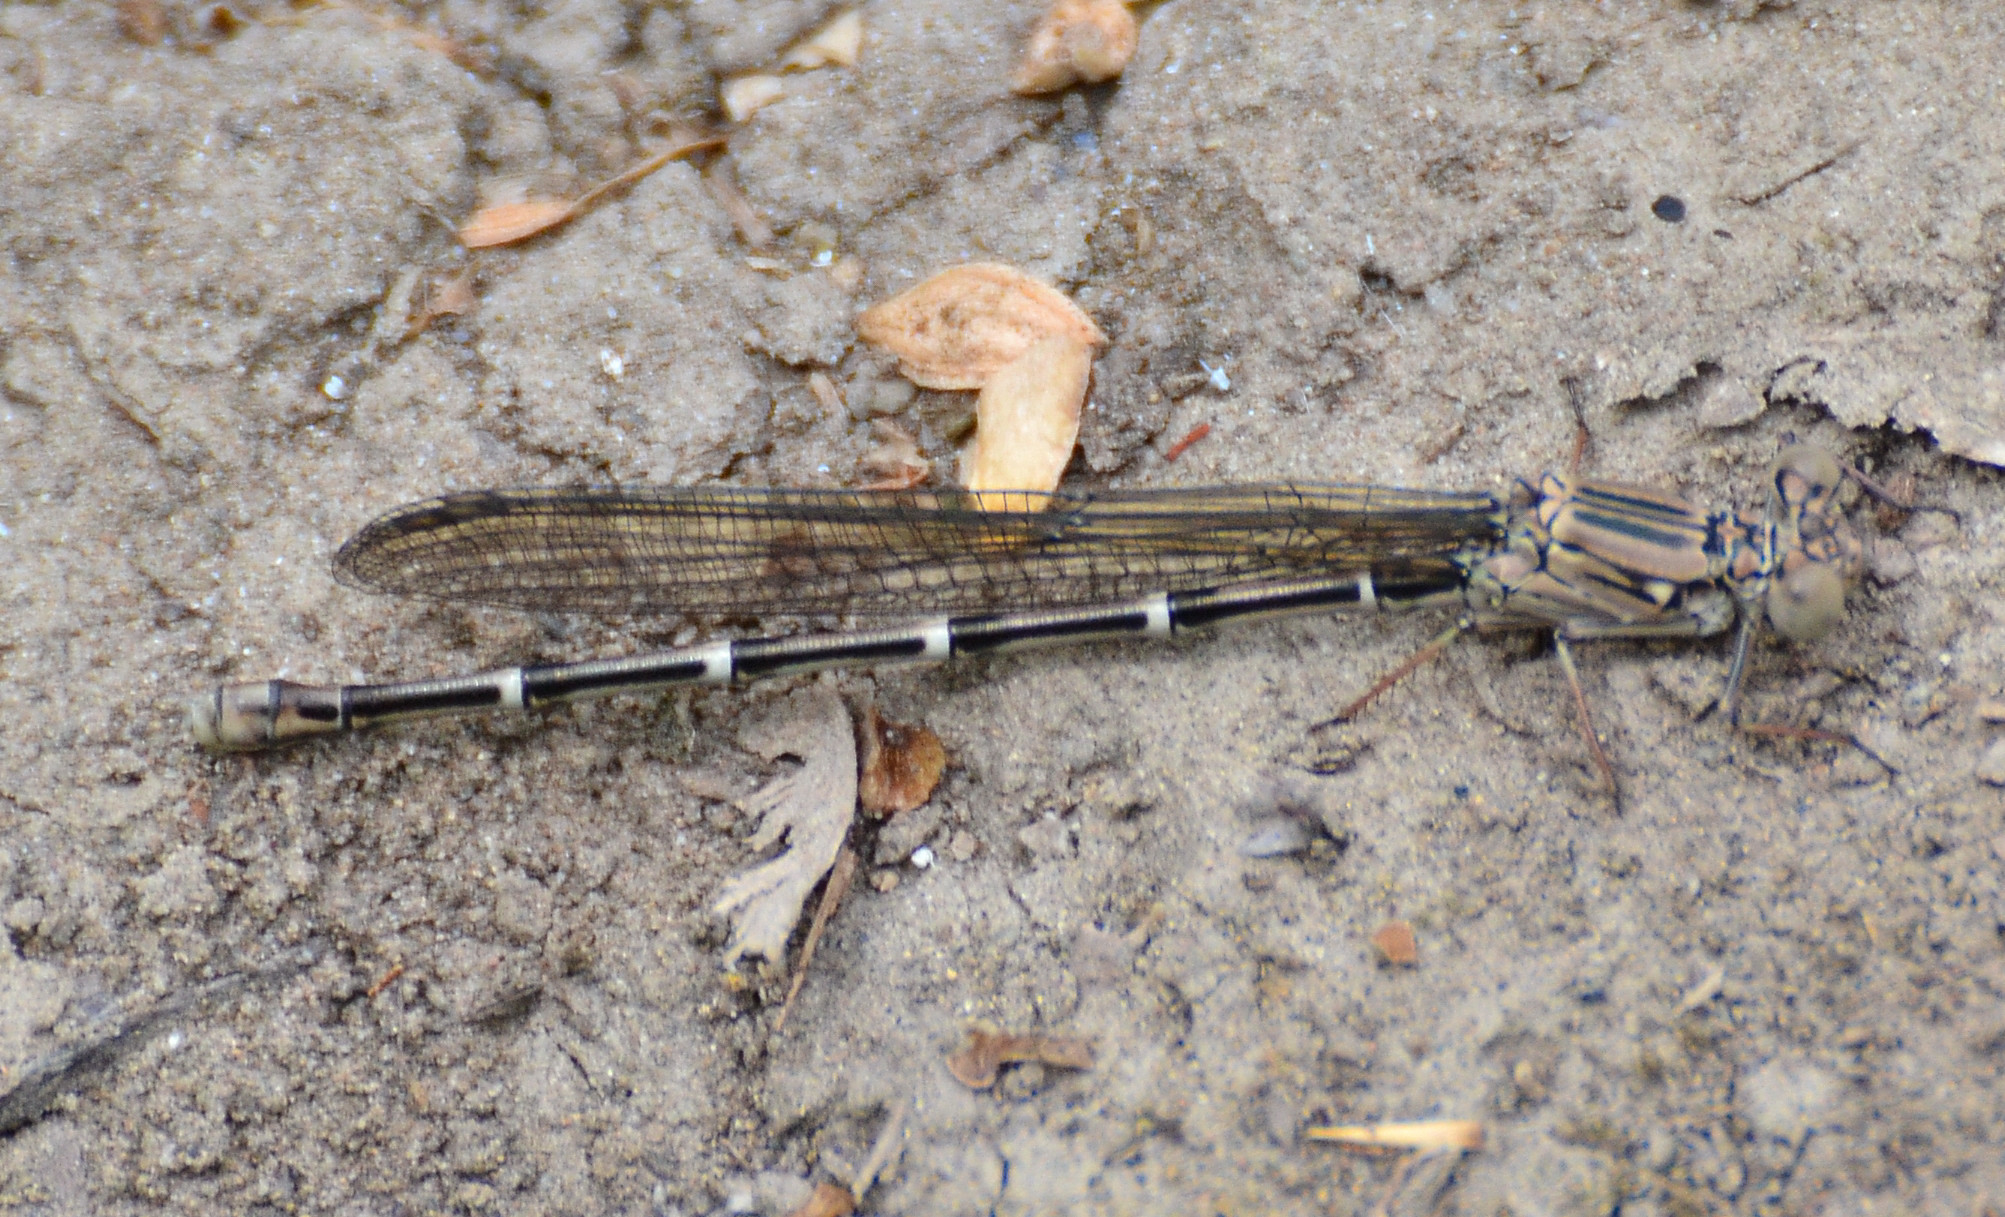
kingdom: Animalia
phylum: Arthropoda
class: Insecta
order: Odonata
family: Coenagrionidae
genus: Argia
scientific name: Argia lugens
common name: Sooty dancer
